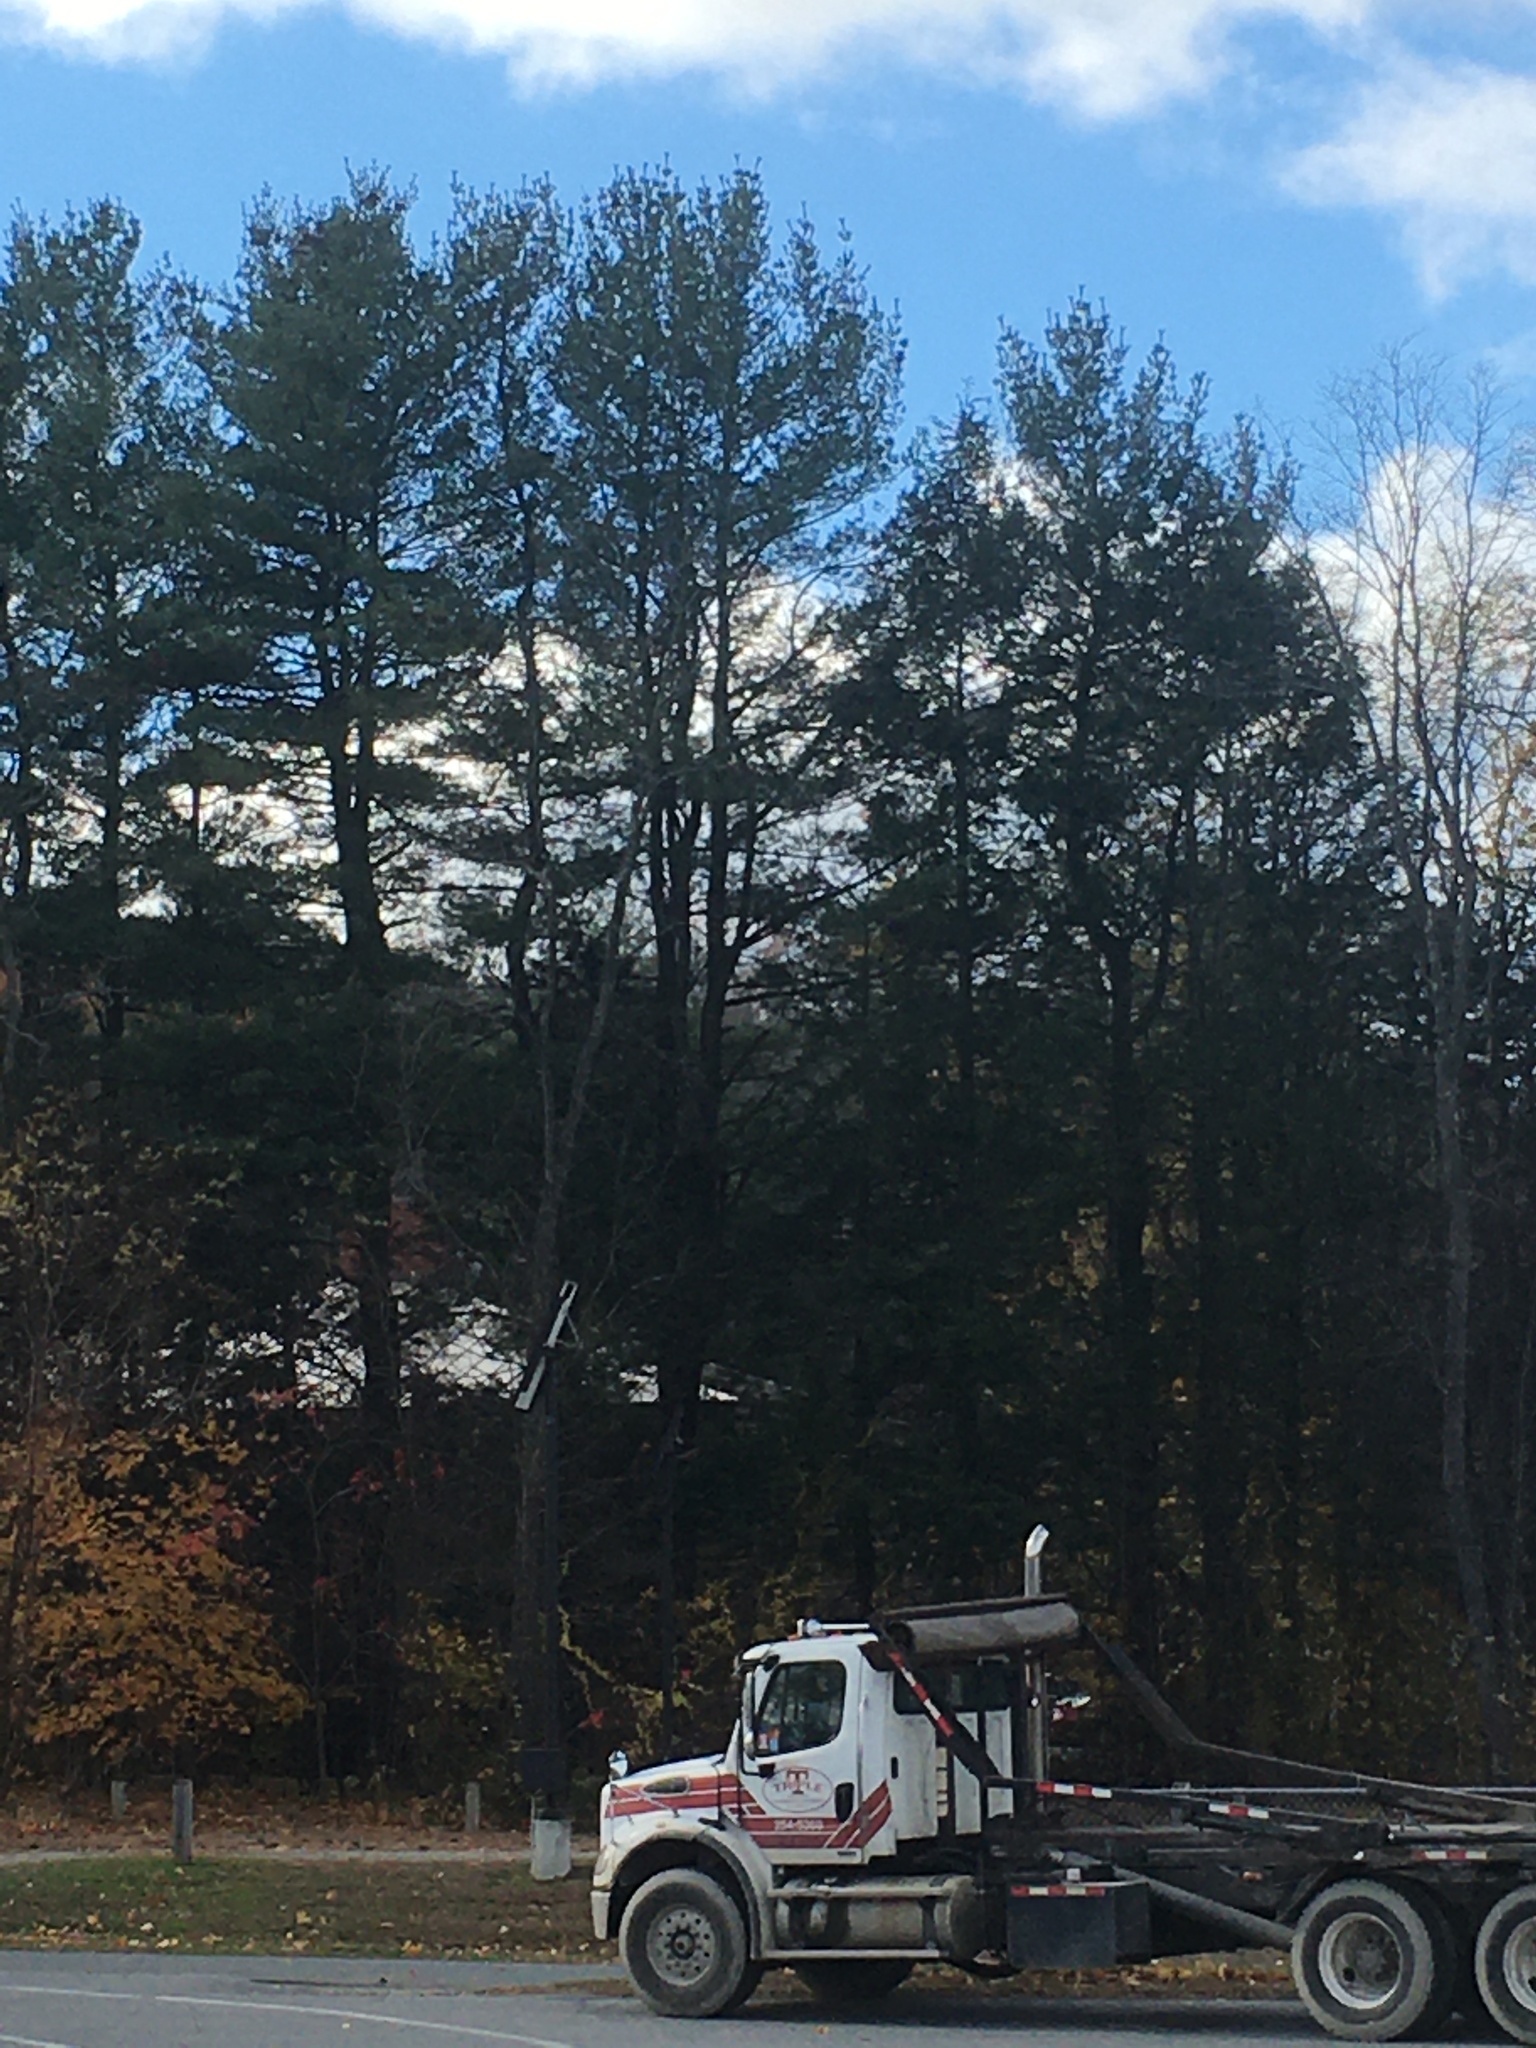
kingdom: Plantae
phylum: Tracheophyta
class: Pinopsida
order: Pinales
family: Pinaceae
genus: Pinus
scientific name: Pinus strobus
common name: Weymouth pine
